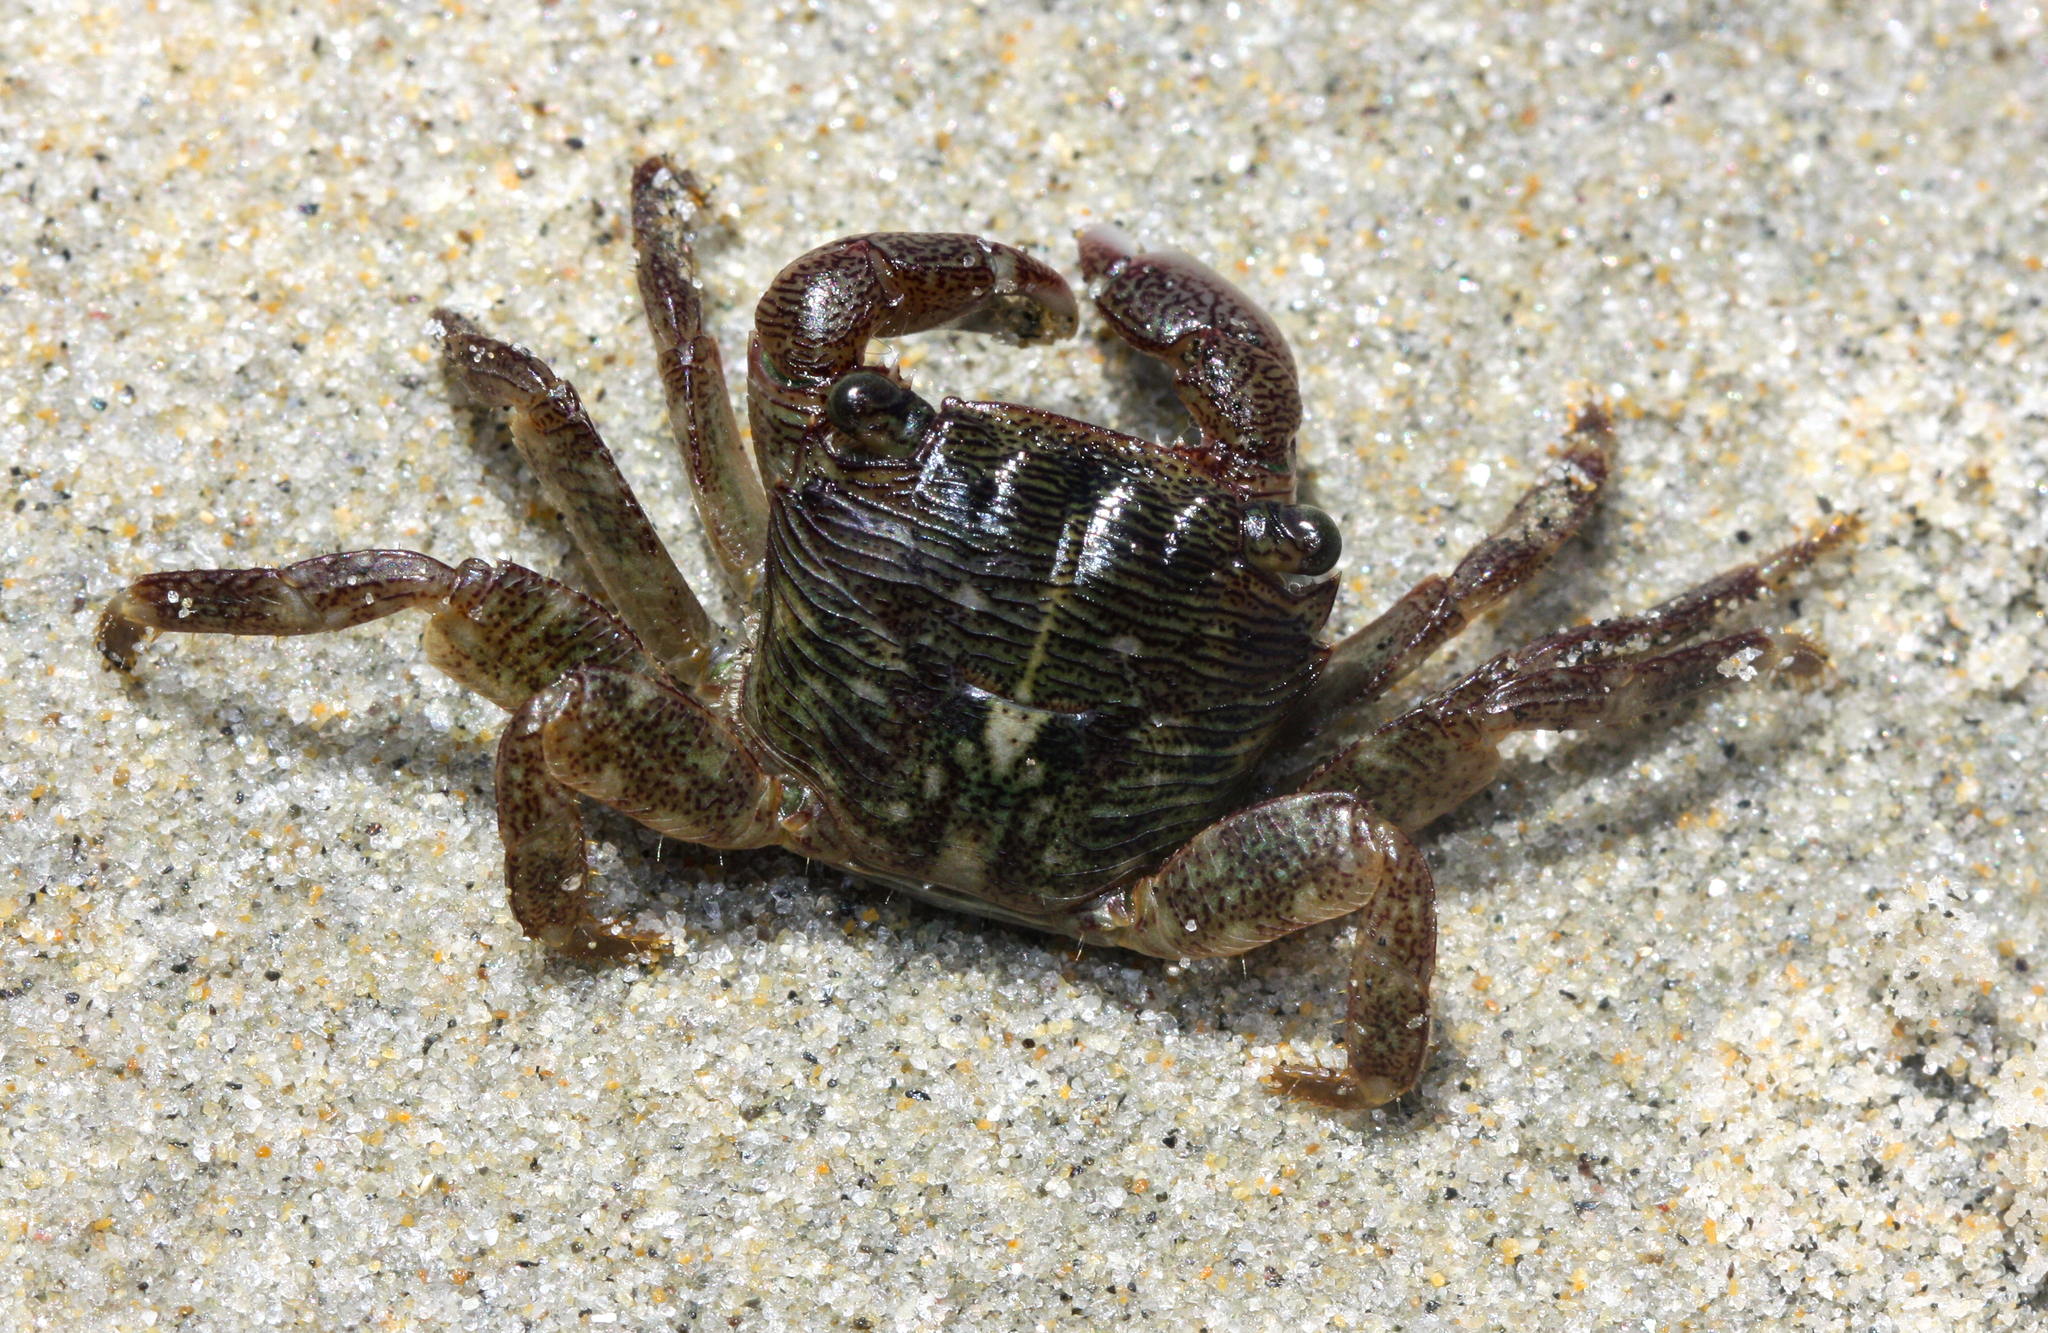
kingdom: Animalia
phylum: Arthropoda
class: Malacostraca
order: Decapoda
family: Grapsidae
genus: Pachygrapsus
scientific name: Pachygrapsus crassipes
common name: Striped shore crab
